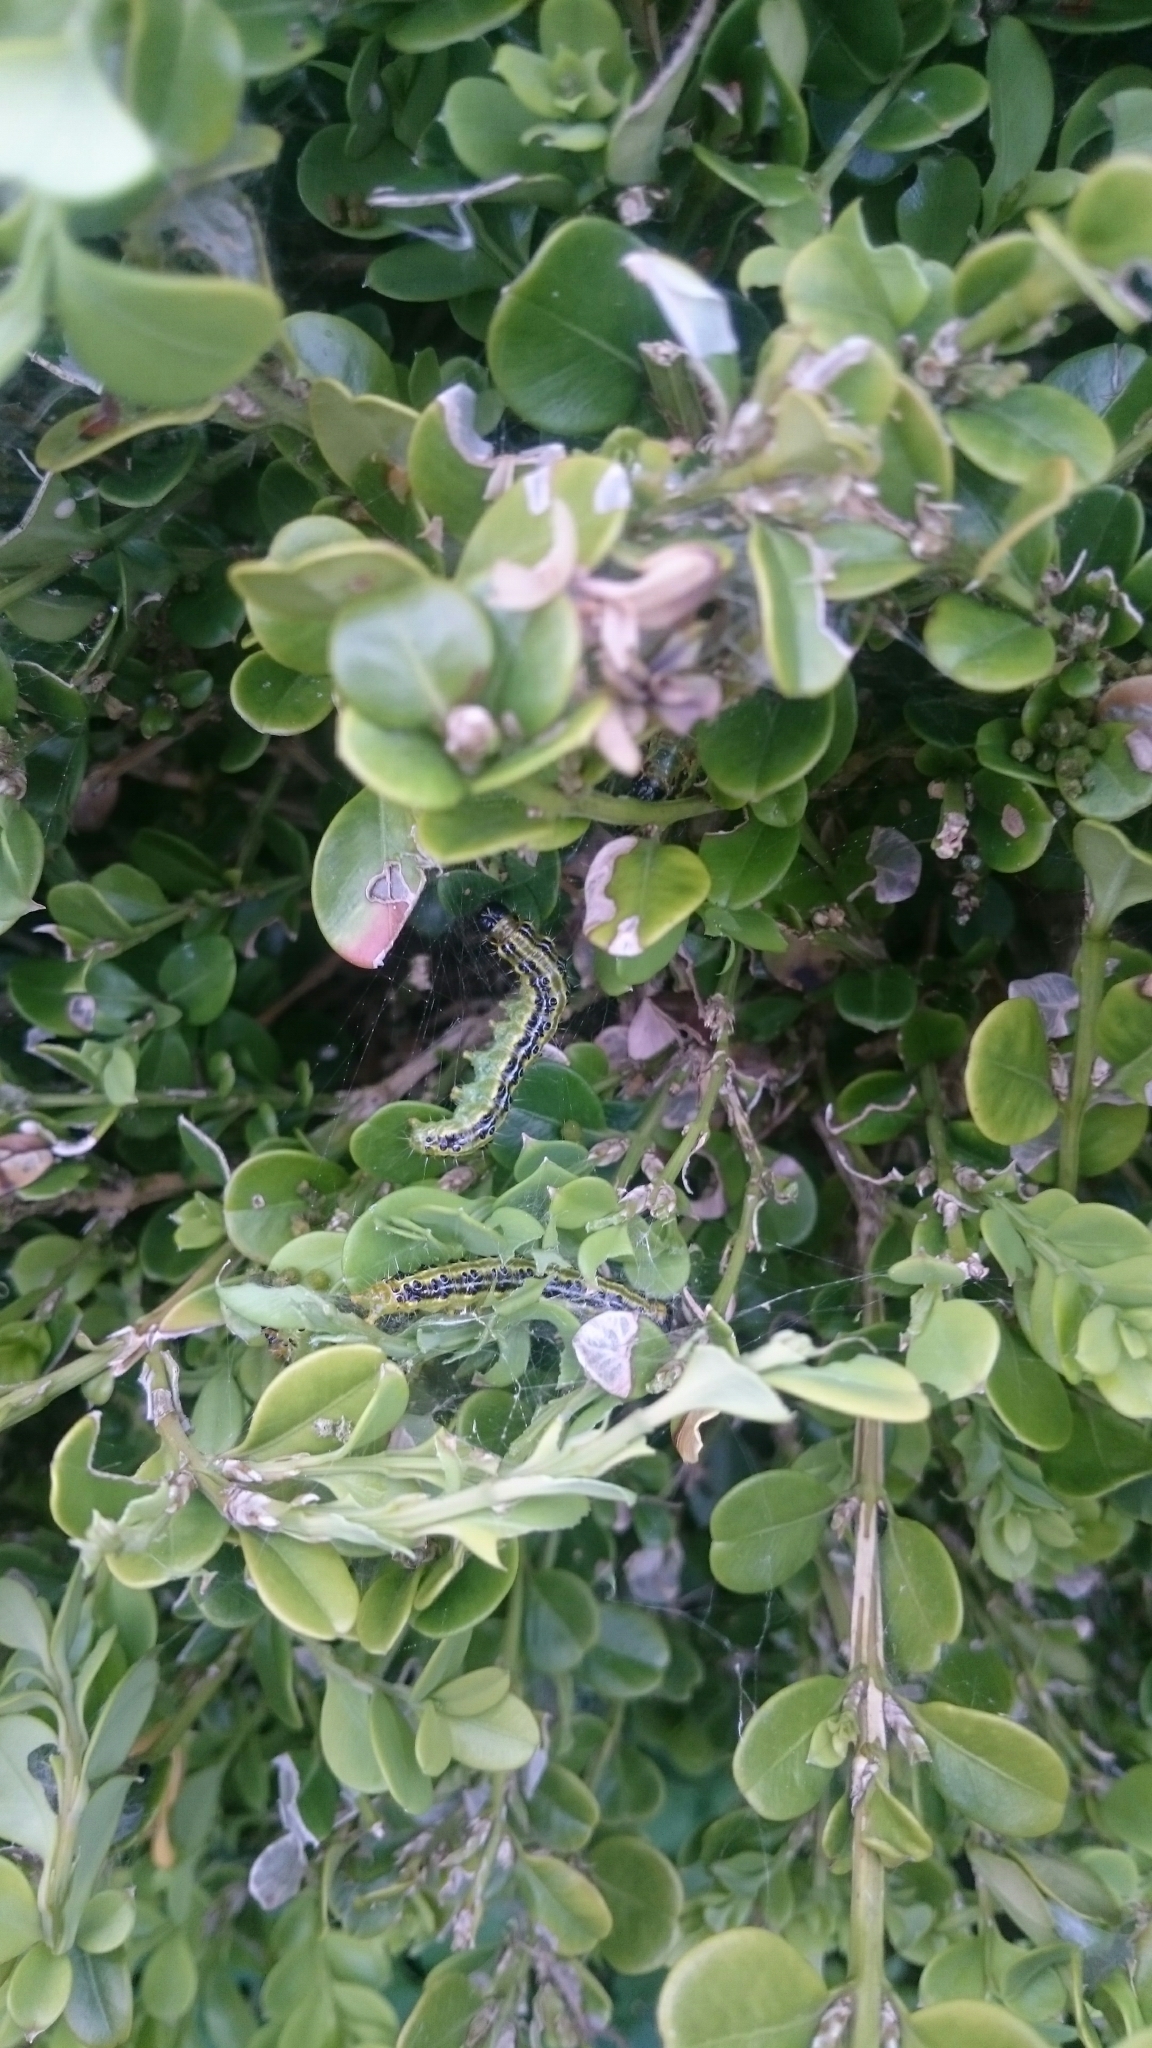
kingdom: Animalia
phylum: Arthropoda
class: Insecta
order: Lepidoptera
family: Crambidae
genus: Cydalima
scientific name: Cydalima perspectalis
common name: Box tree moth
